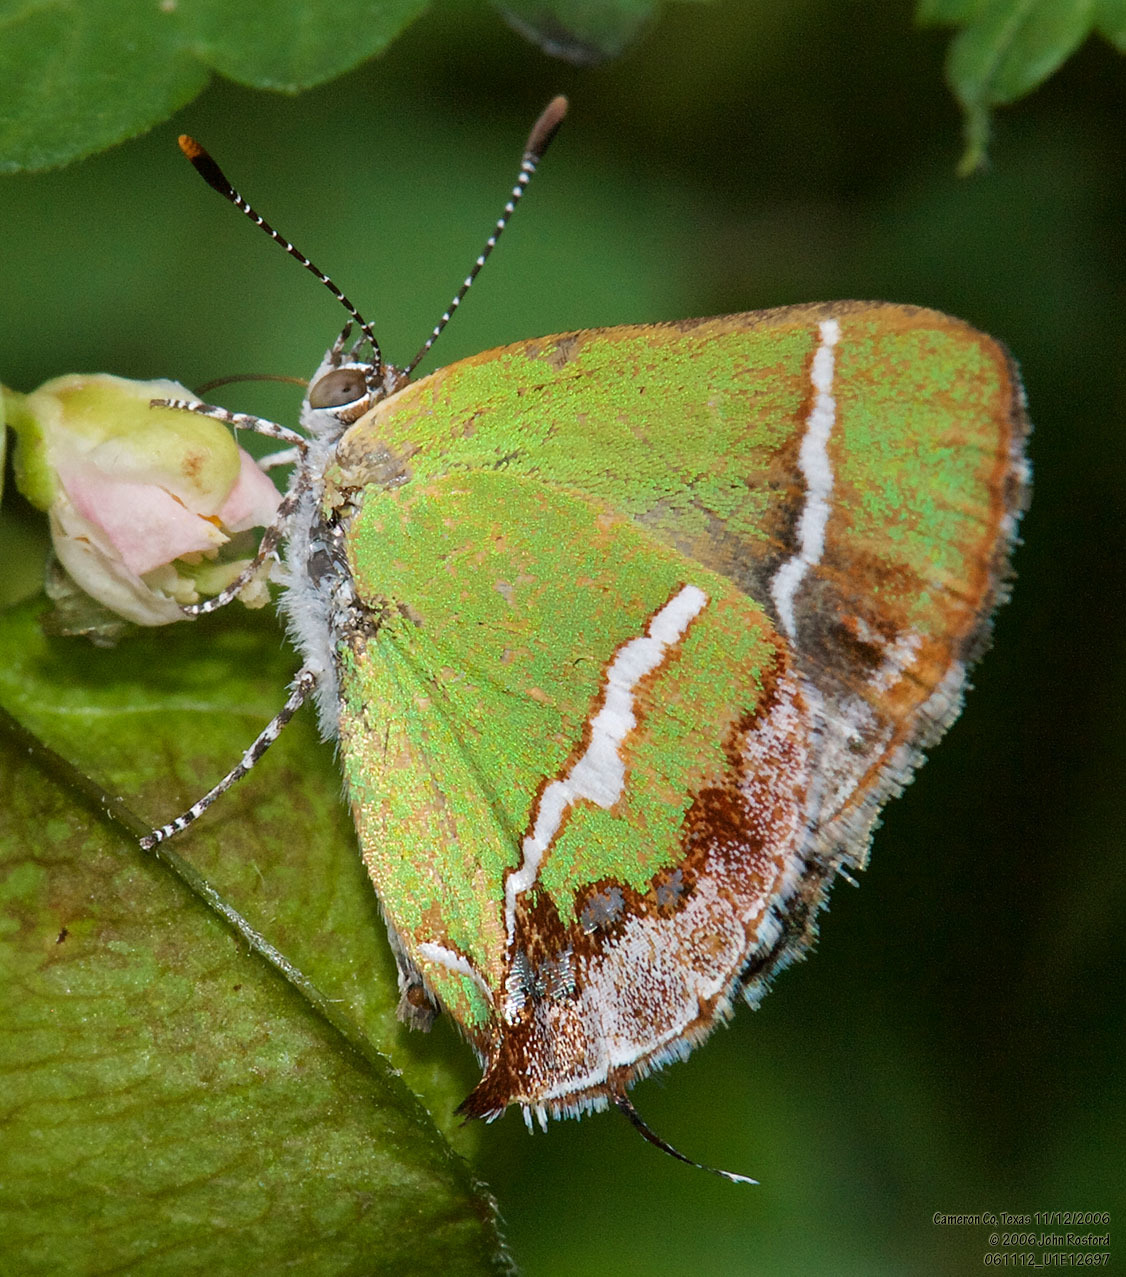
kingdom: Animalia
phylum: Arthropoda
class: Insecta
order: Lepidoptera
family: Lycaenidae
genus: Chlorostrymon
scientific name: Chlorostrymon simaethis
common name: Silver-banded hairstreak
